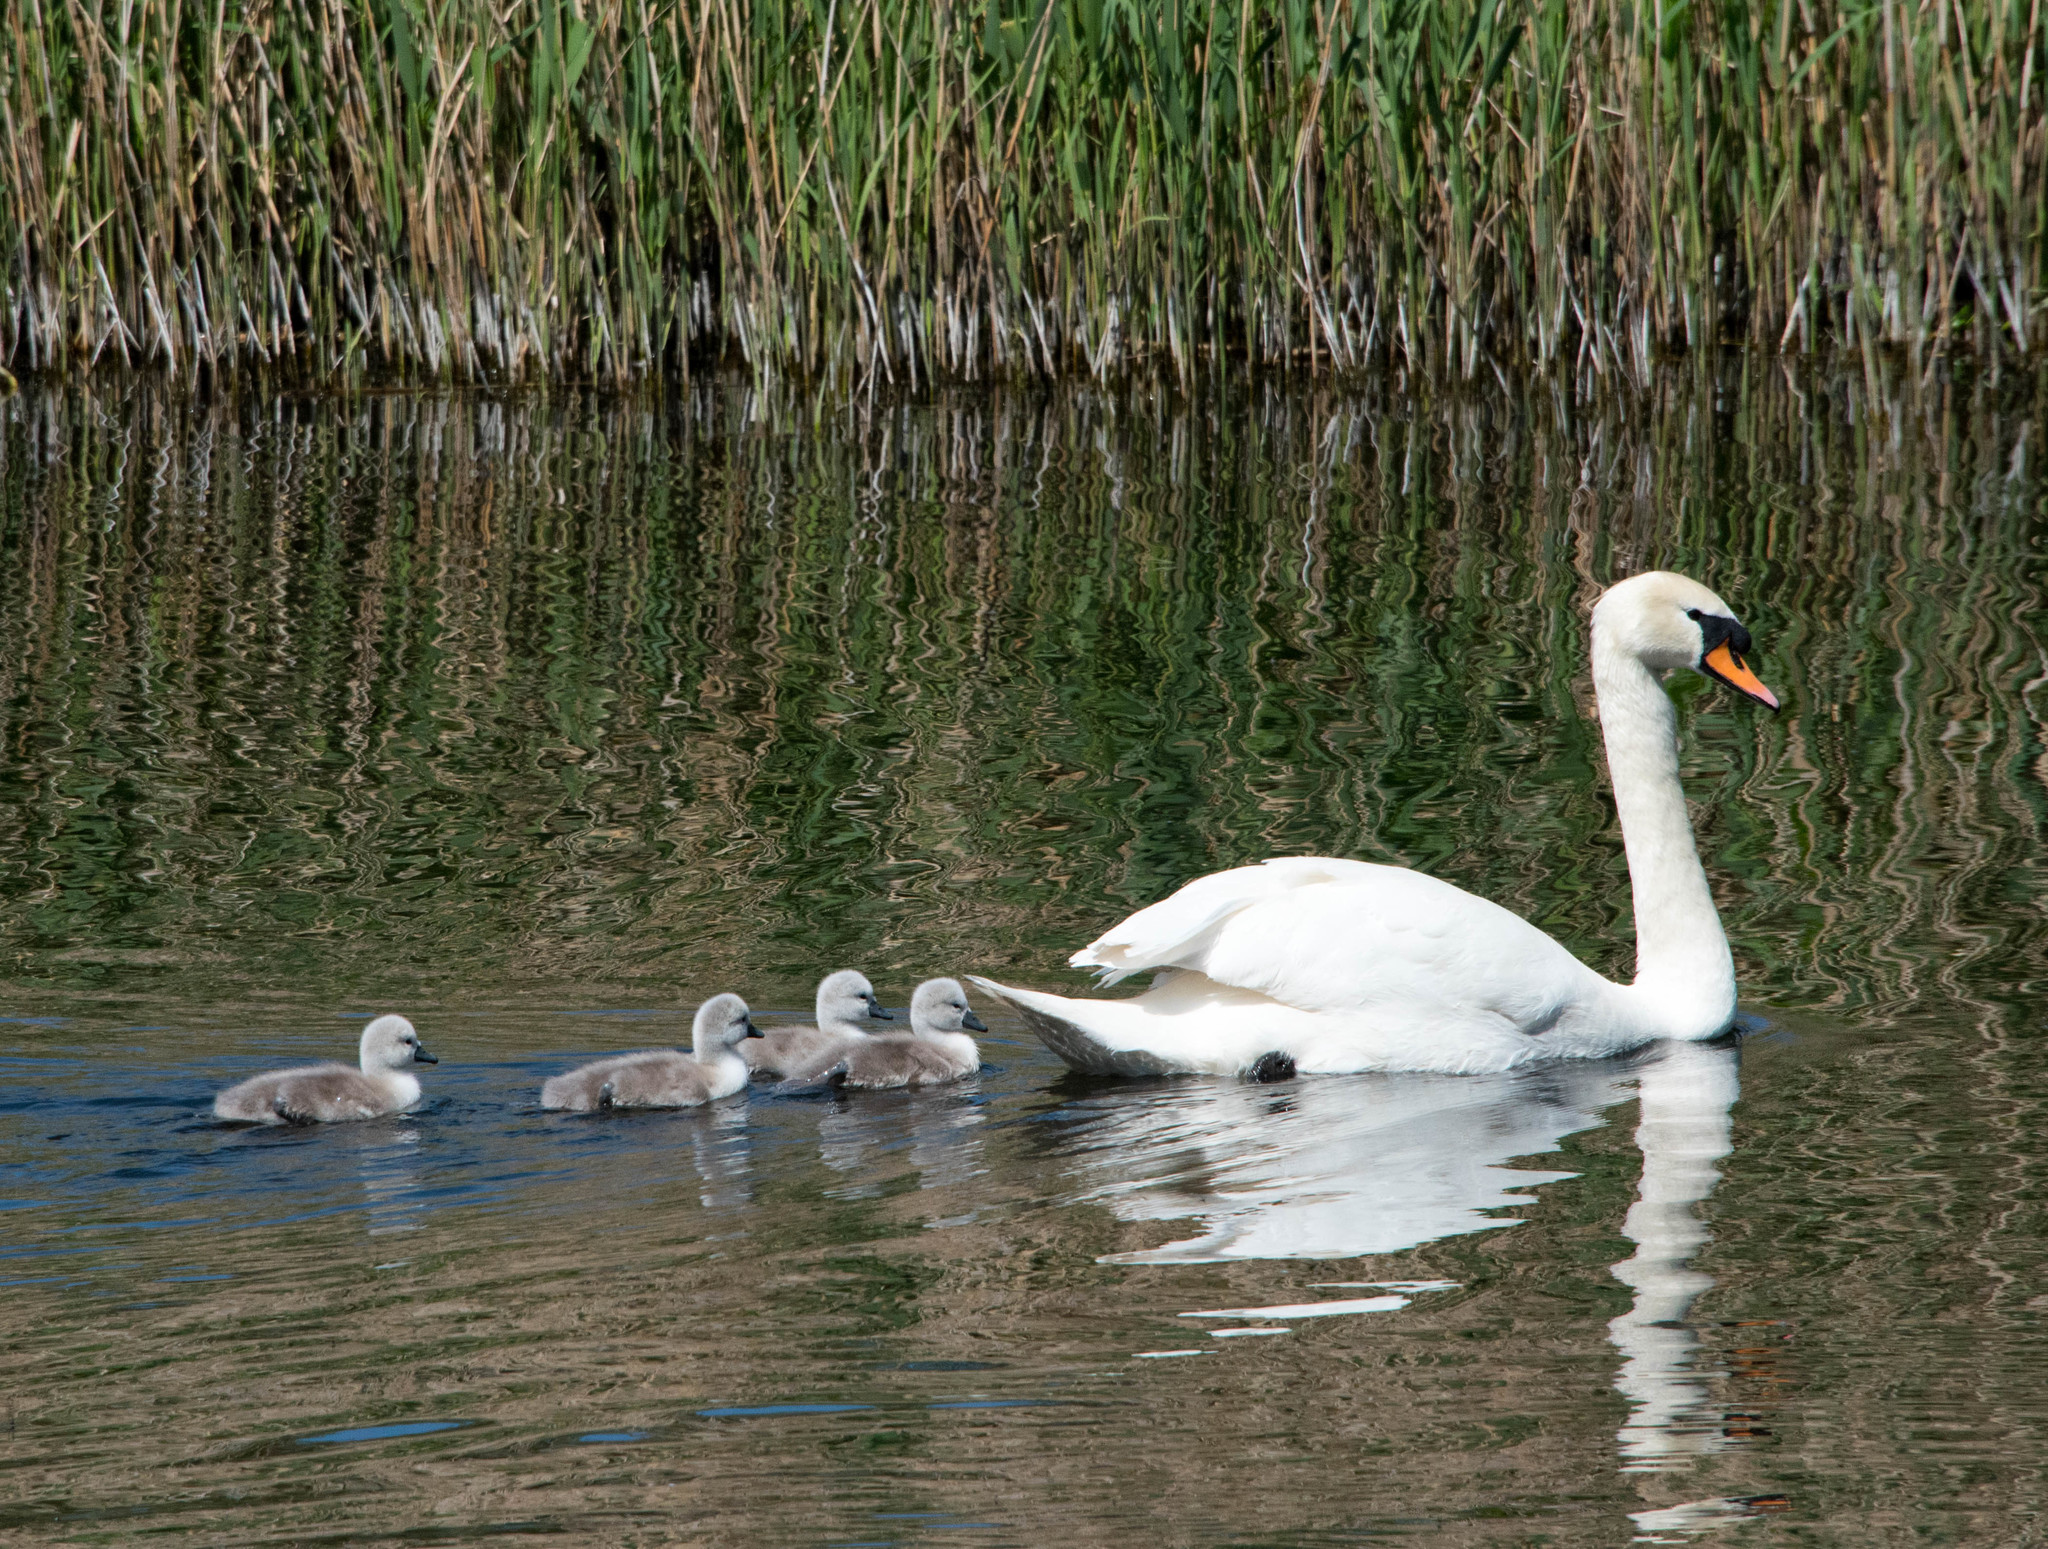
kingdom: Animalia
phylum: Chordata
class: Aves
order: Anseriformes
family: Anatidae
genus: Cygnus
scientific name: Cygnus olor
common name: Mute swan
